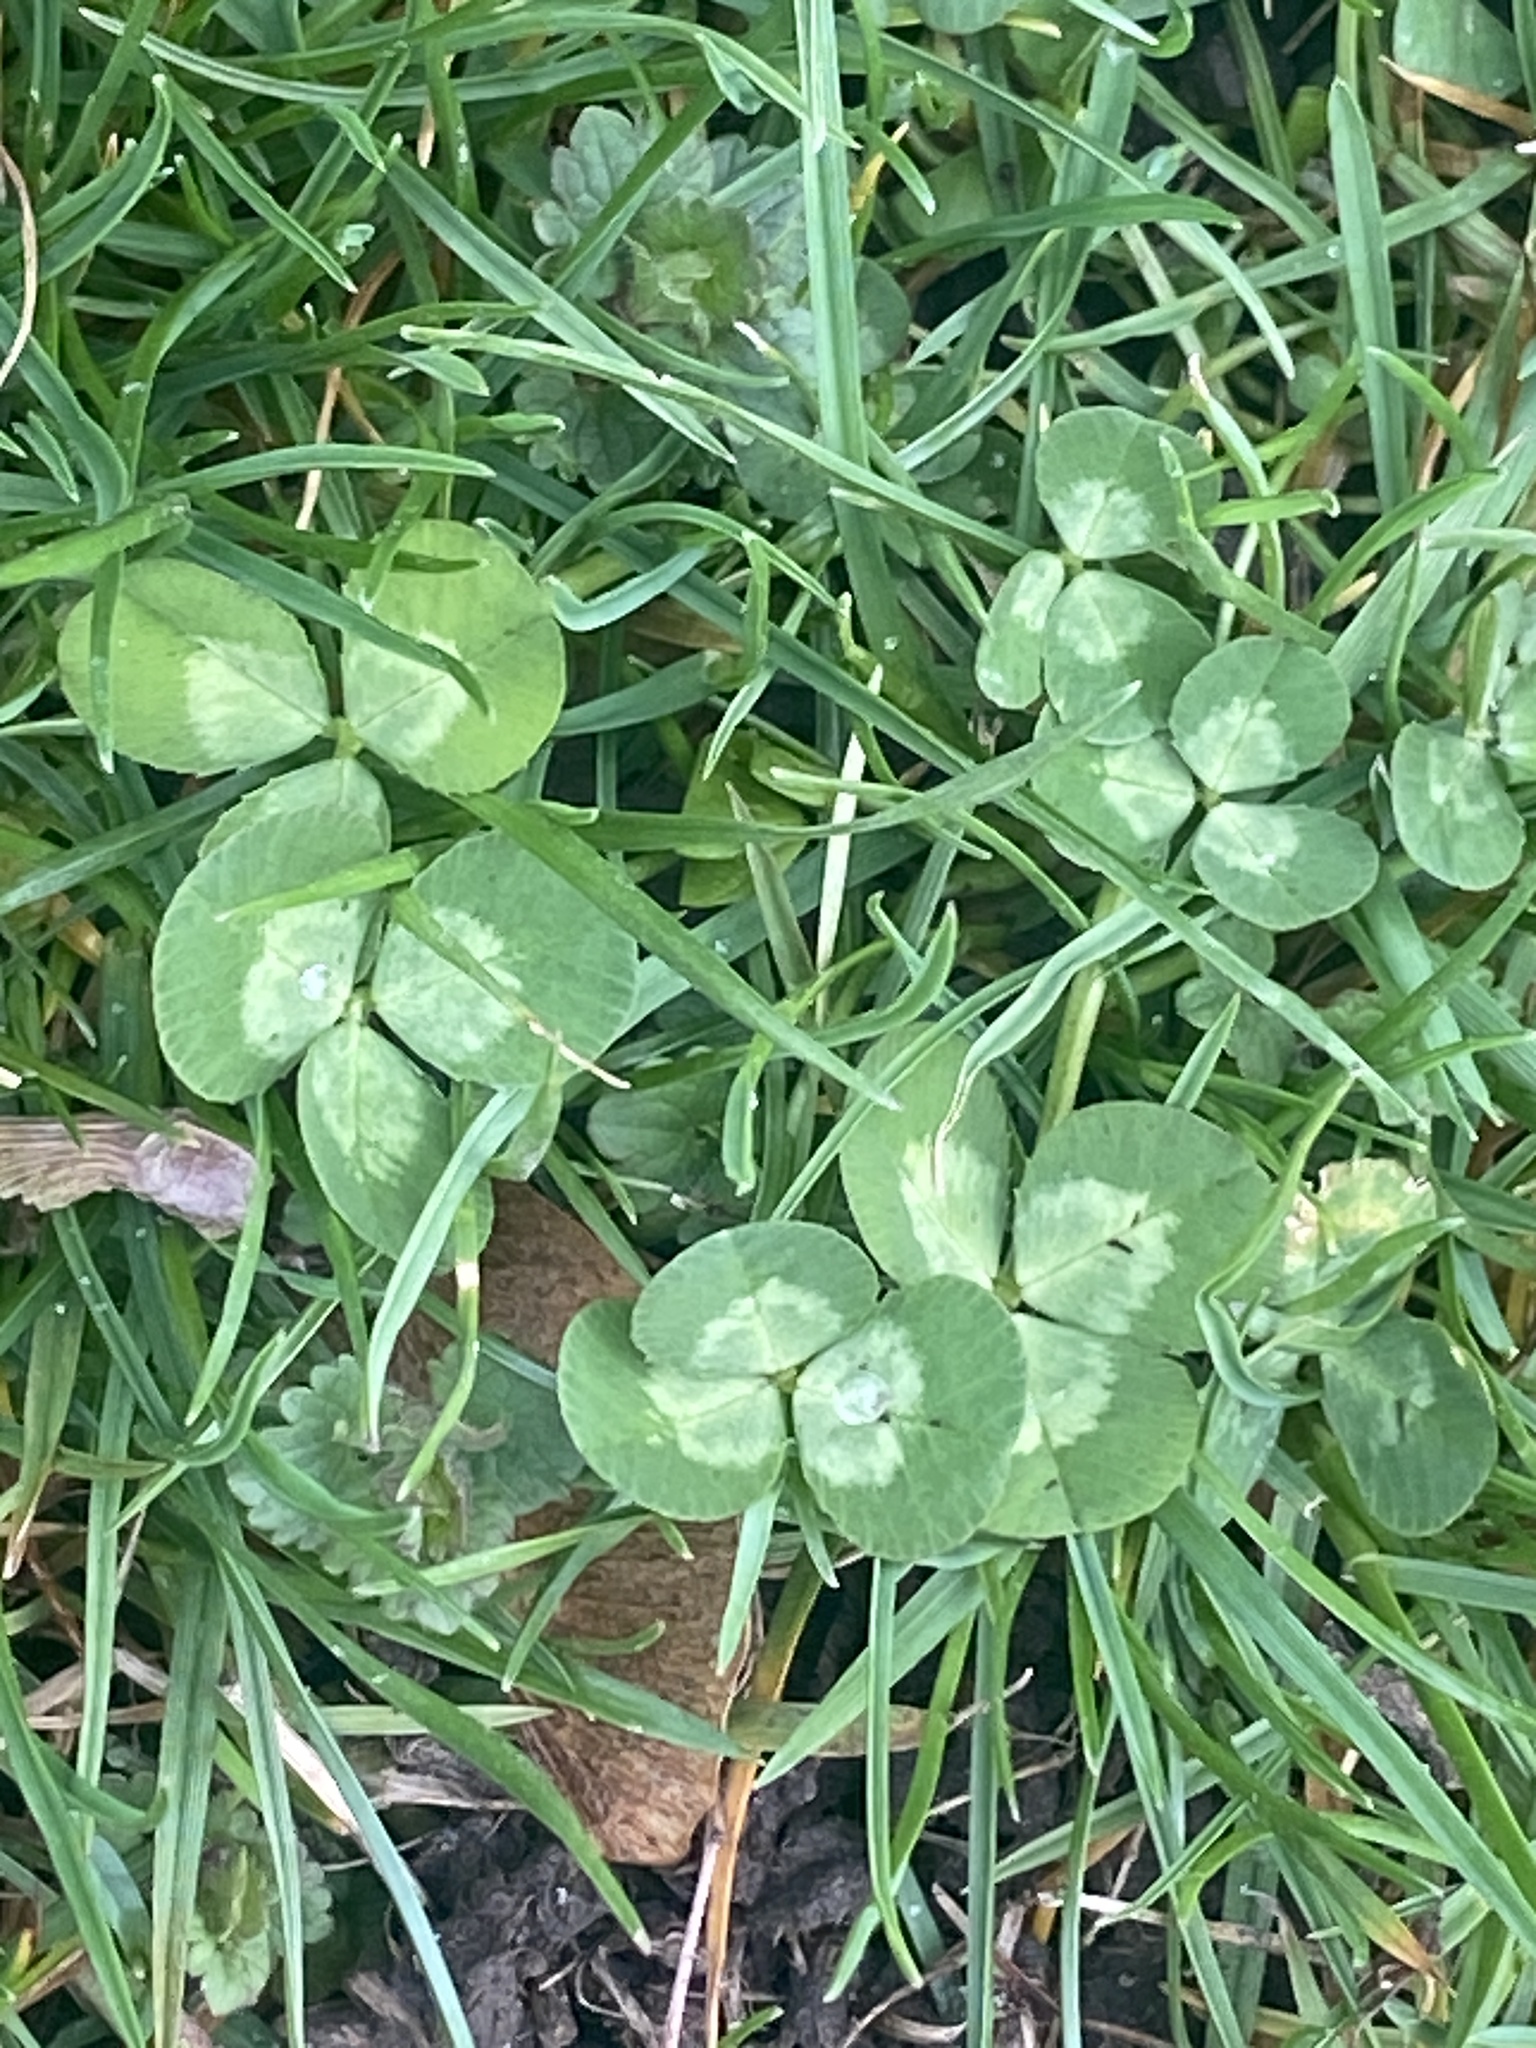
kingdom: Plantae
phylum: Tracheophyta
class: Magnoliopsida
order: Fabales
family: Fabaceae
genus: Trifolium
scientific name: Trifolium repens
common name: White clover
